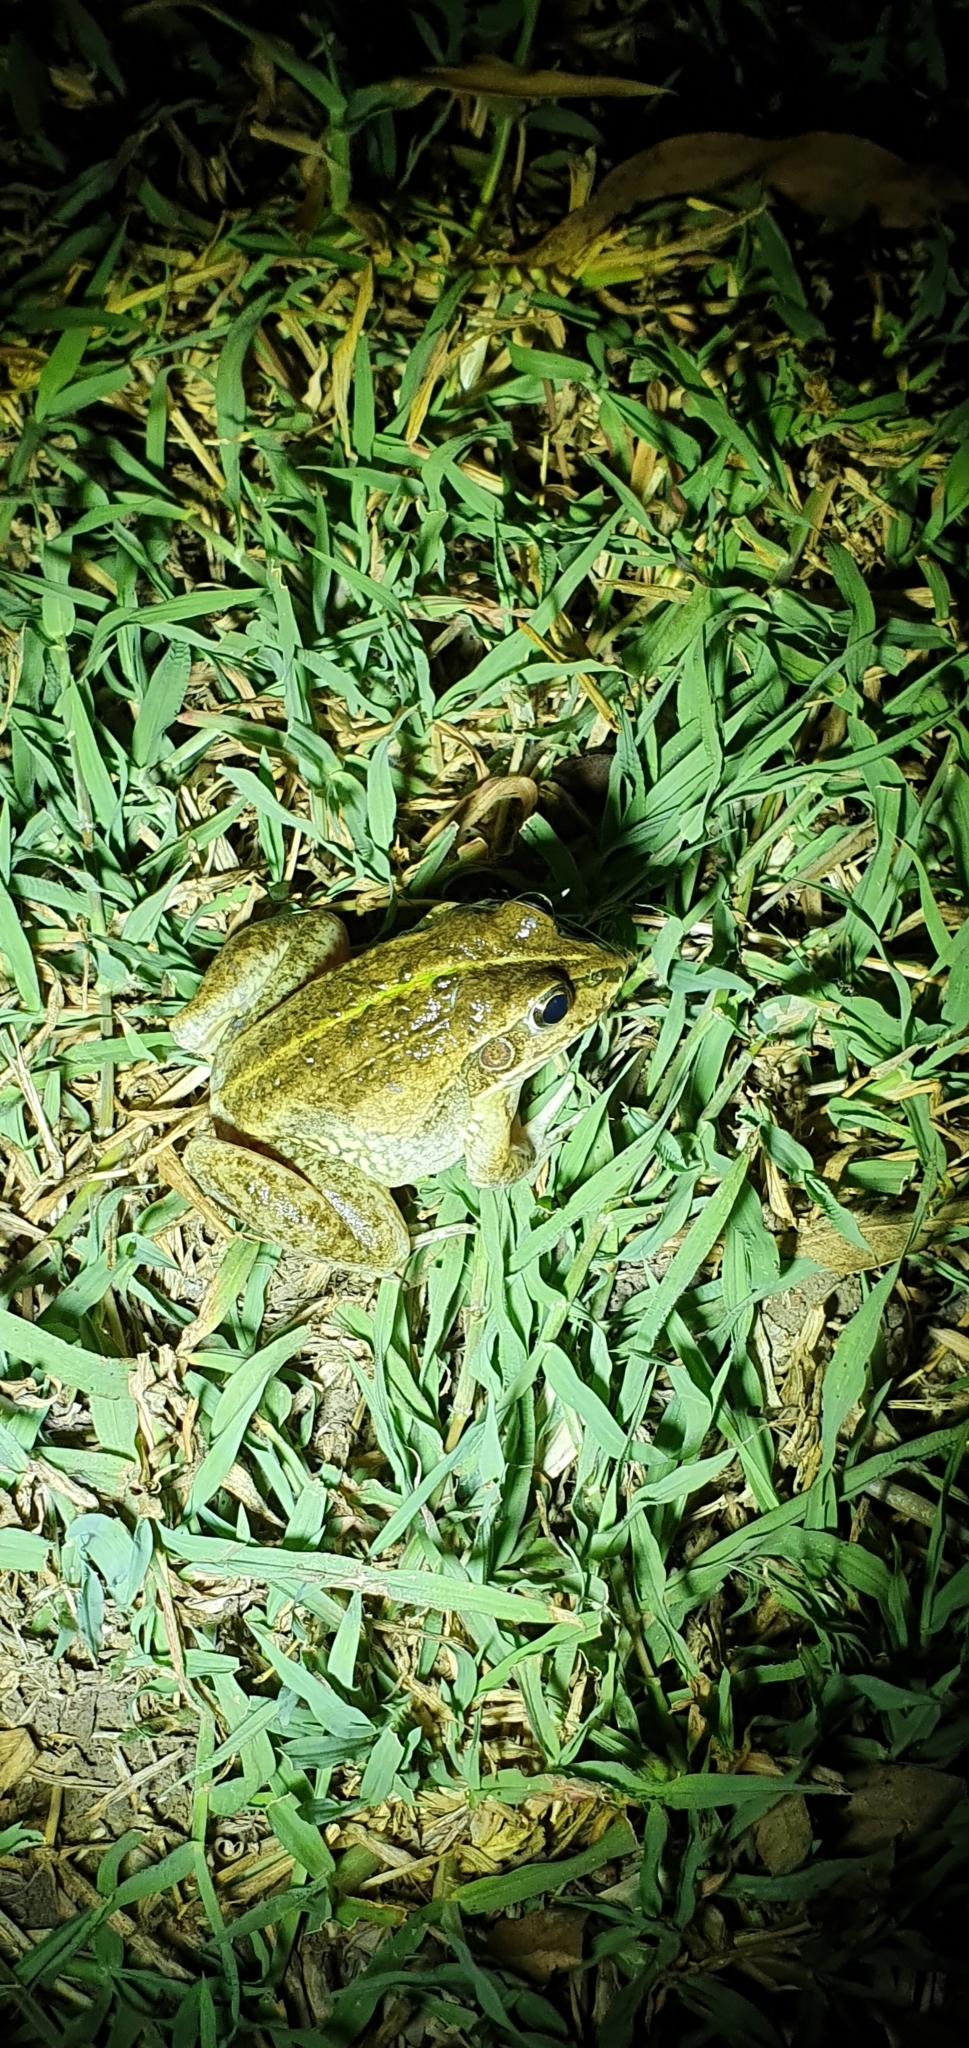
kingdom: Animalia
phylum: Chordata
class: Amphibia
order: Anura
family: Pelodryadidae
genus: Ranoidea
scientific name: Ranoidea alboguttata
